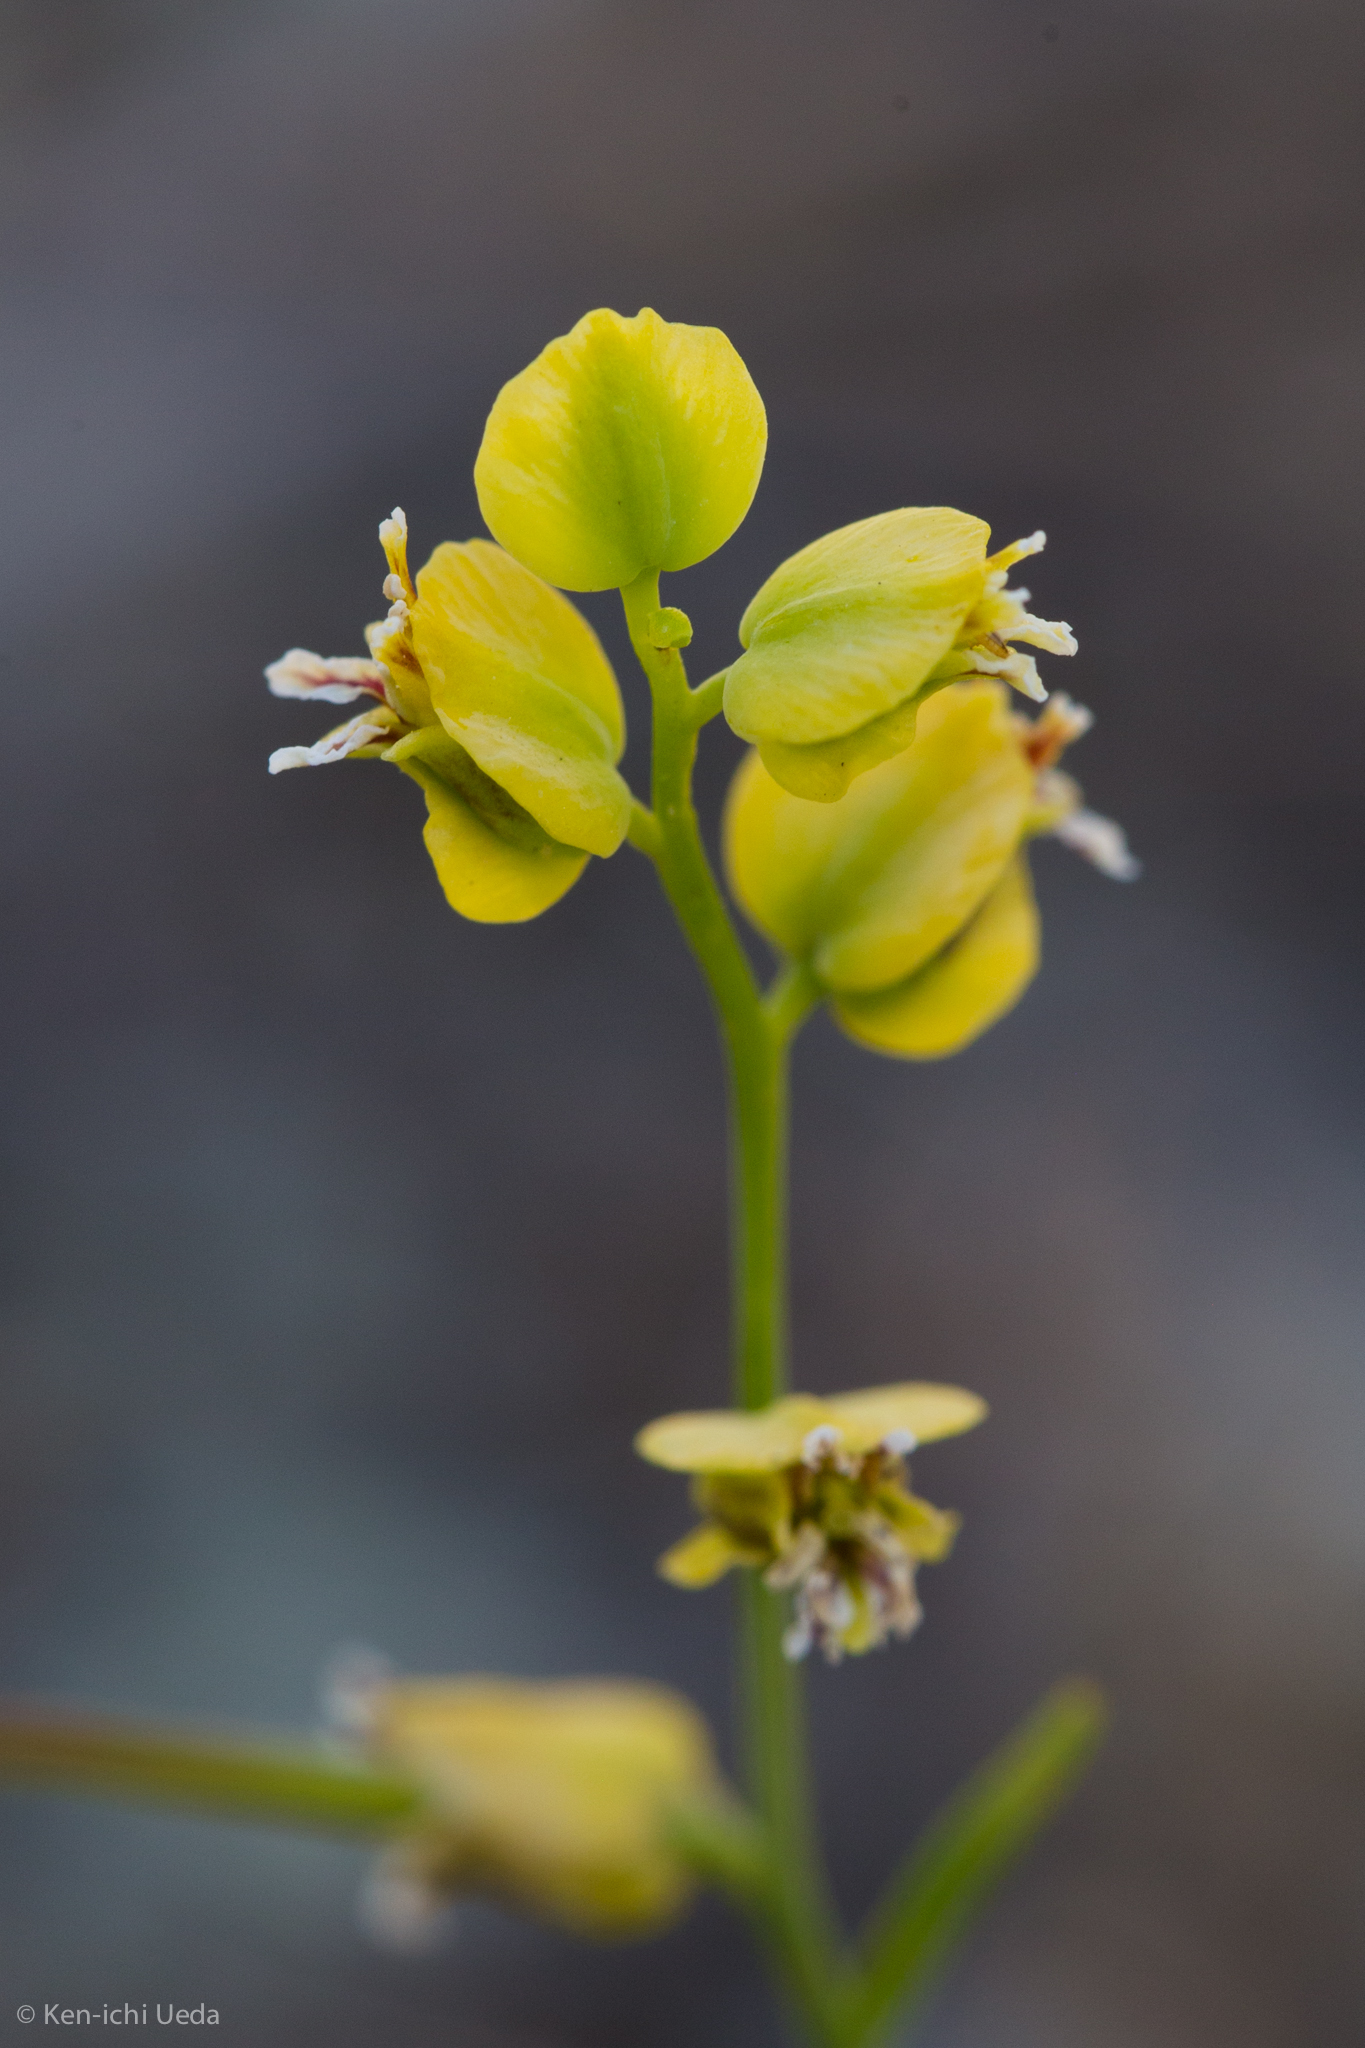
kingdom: Plantae
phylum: Tracheophyta
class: Magnoliopsida
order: Brassicales
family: Brassicaceae
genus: Streptanthus
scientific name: Streptanthus polygaloides
